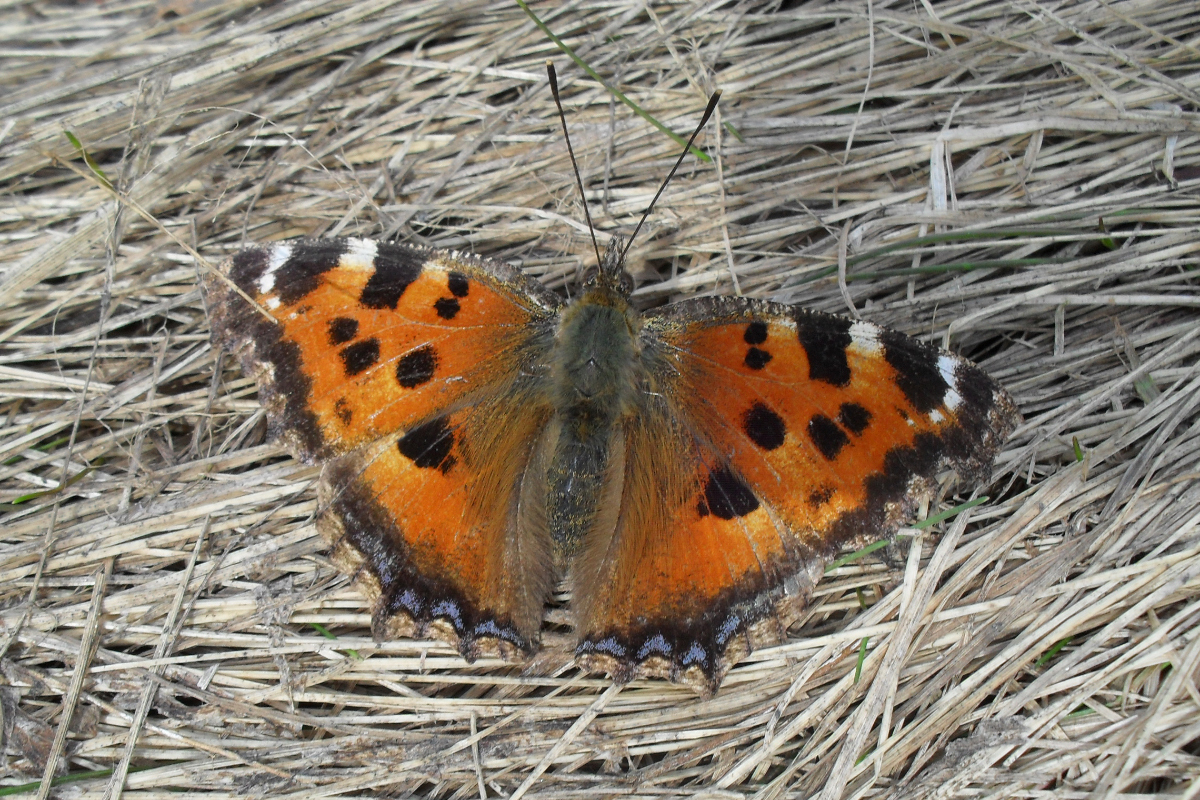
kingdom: Animalia
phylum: Arthropoda
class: Insecta
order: Lepidoptera
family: Nymphalidae
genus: Nymphalis
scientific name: Nymphalis xanthomelas
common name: Scarce tortoiseshell
